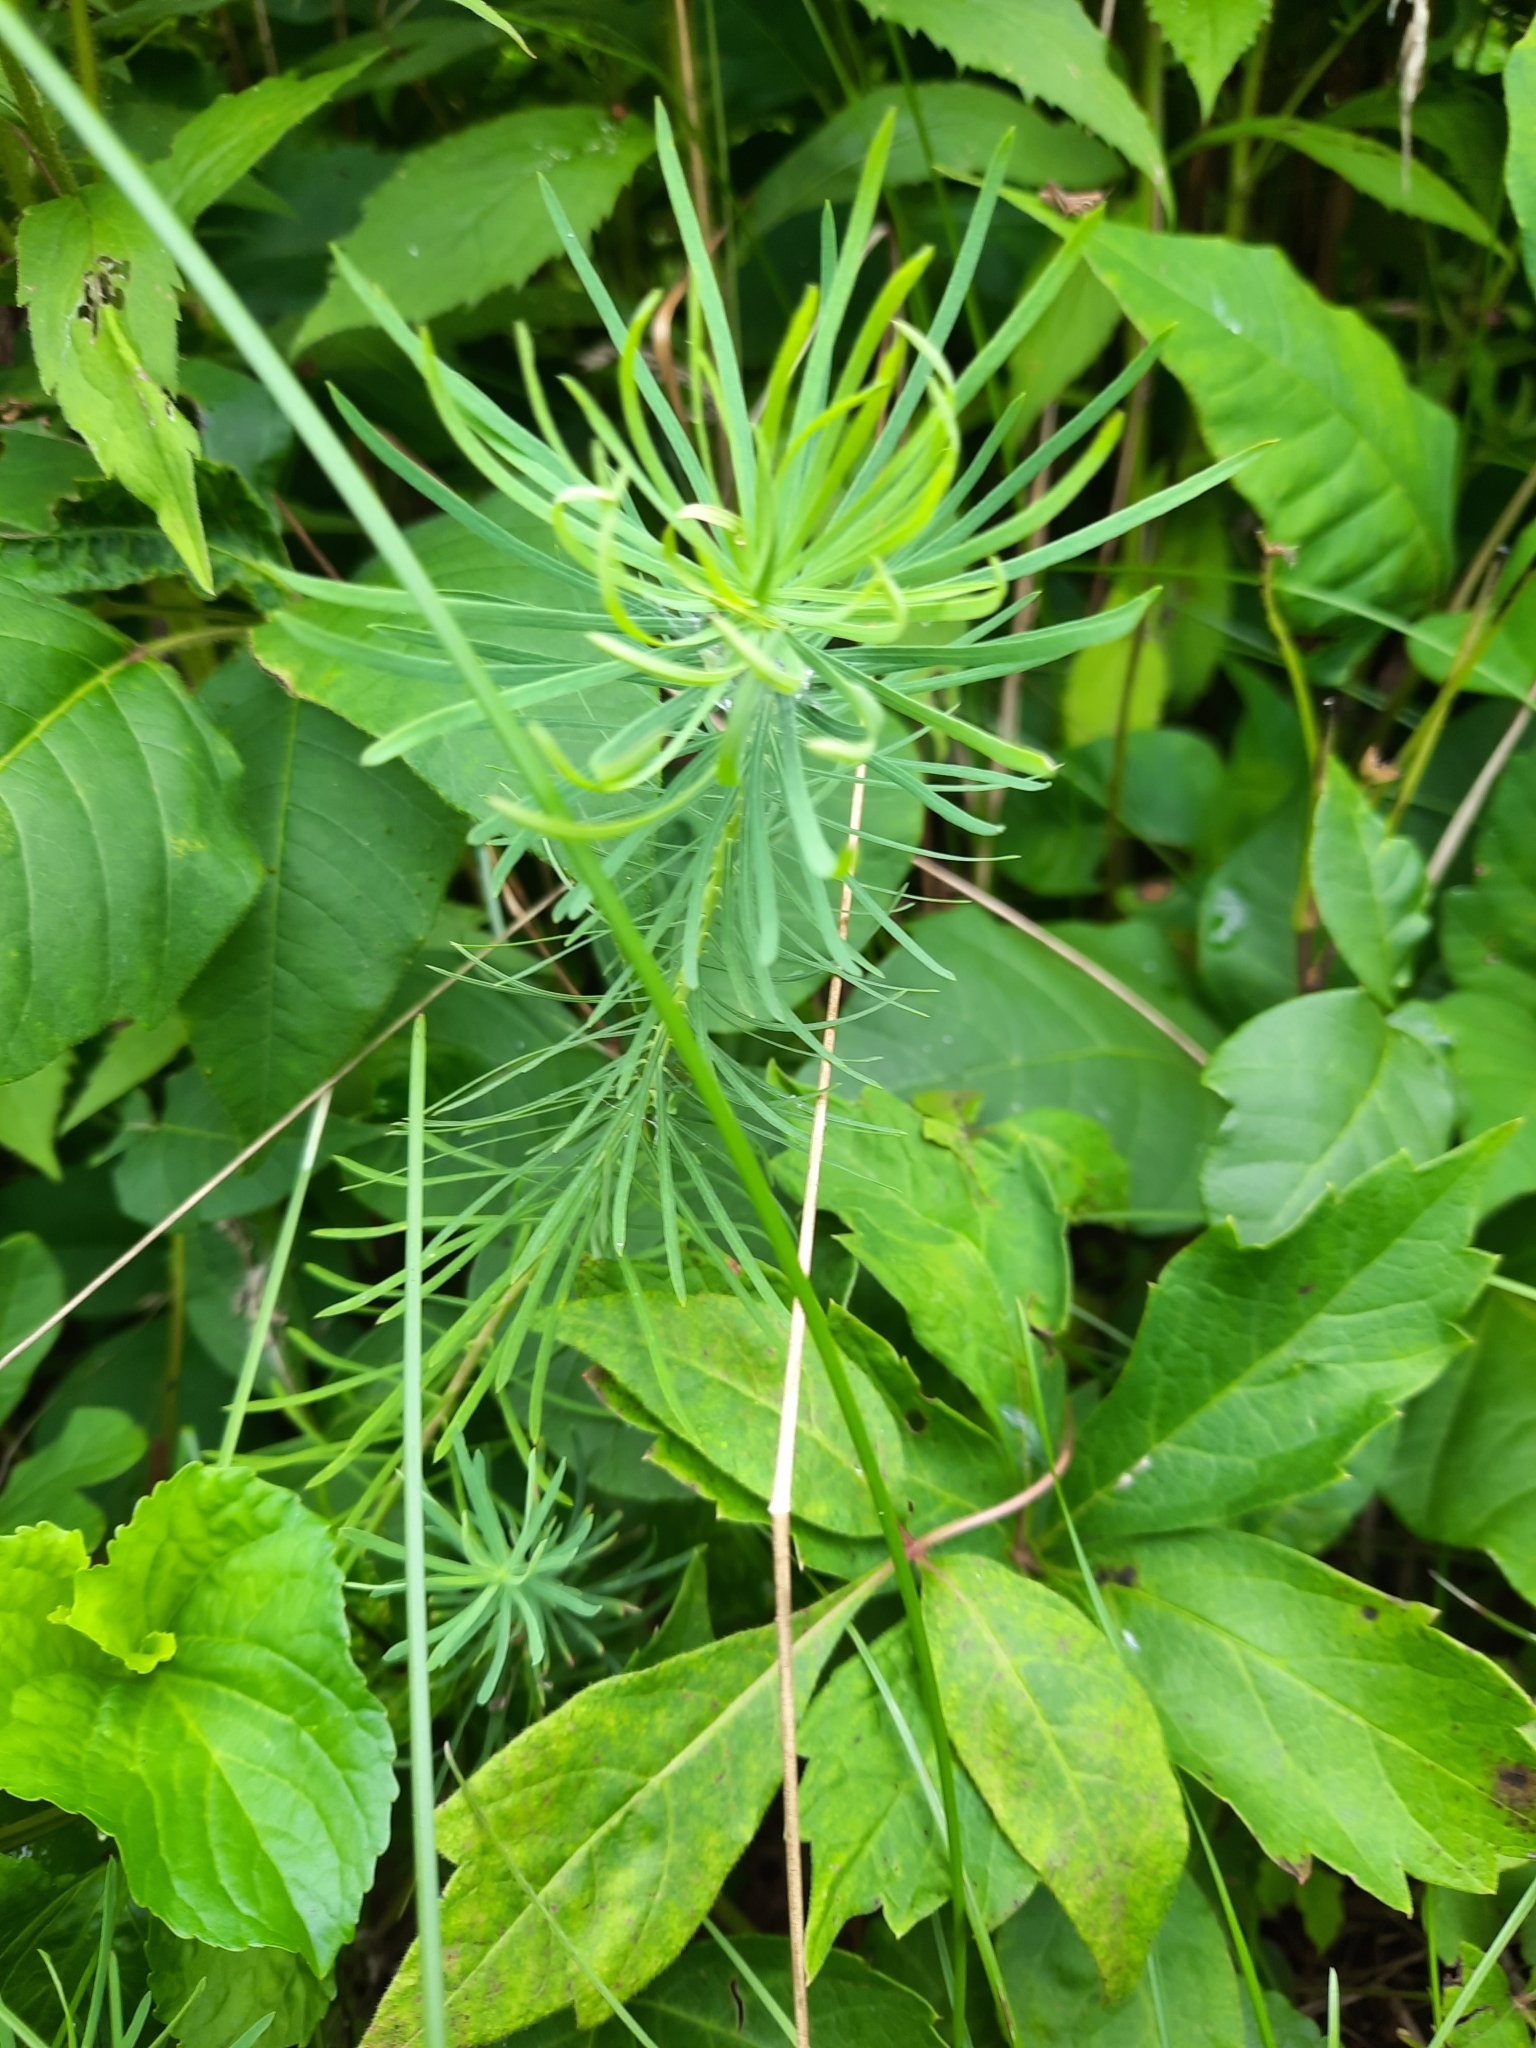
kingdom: Plantae
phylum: Tracheophyta
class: Magnoliopsida
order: Malpighiales
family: Euphorbiaceae
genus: Euphorbia
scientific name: Euphorbia cyparissias
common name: Cypress spurge
